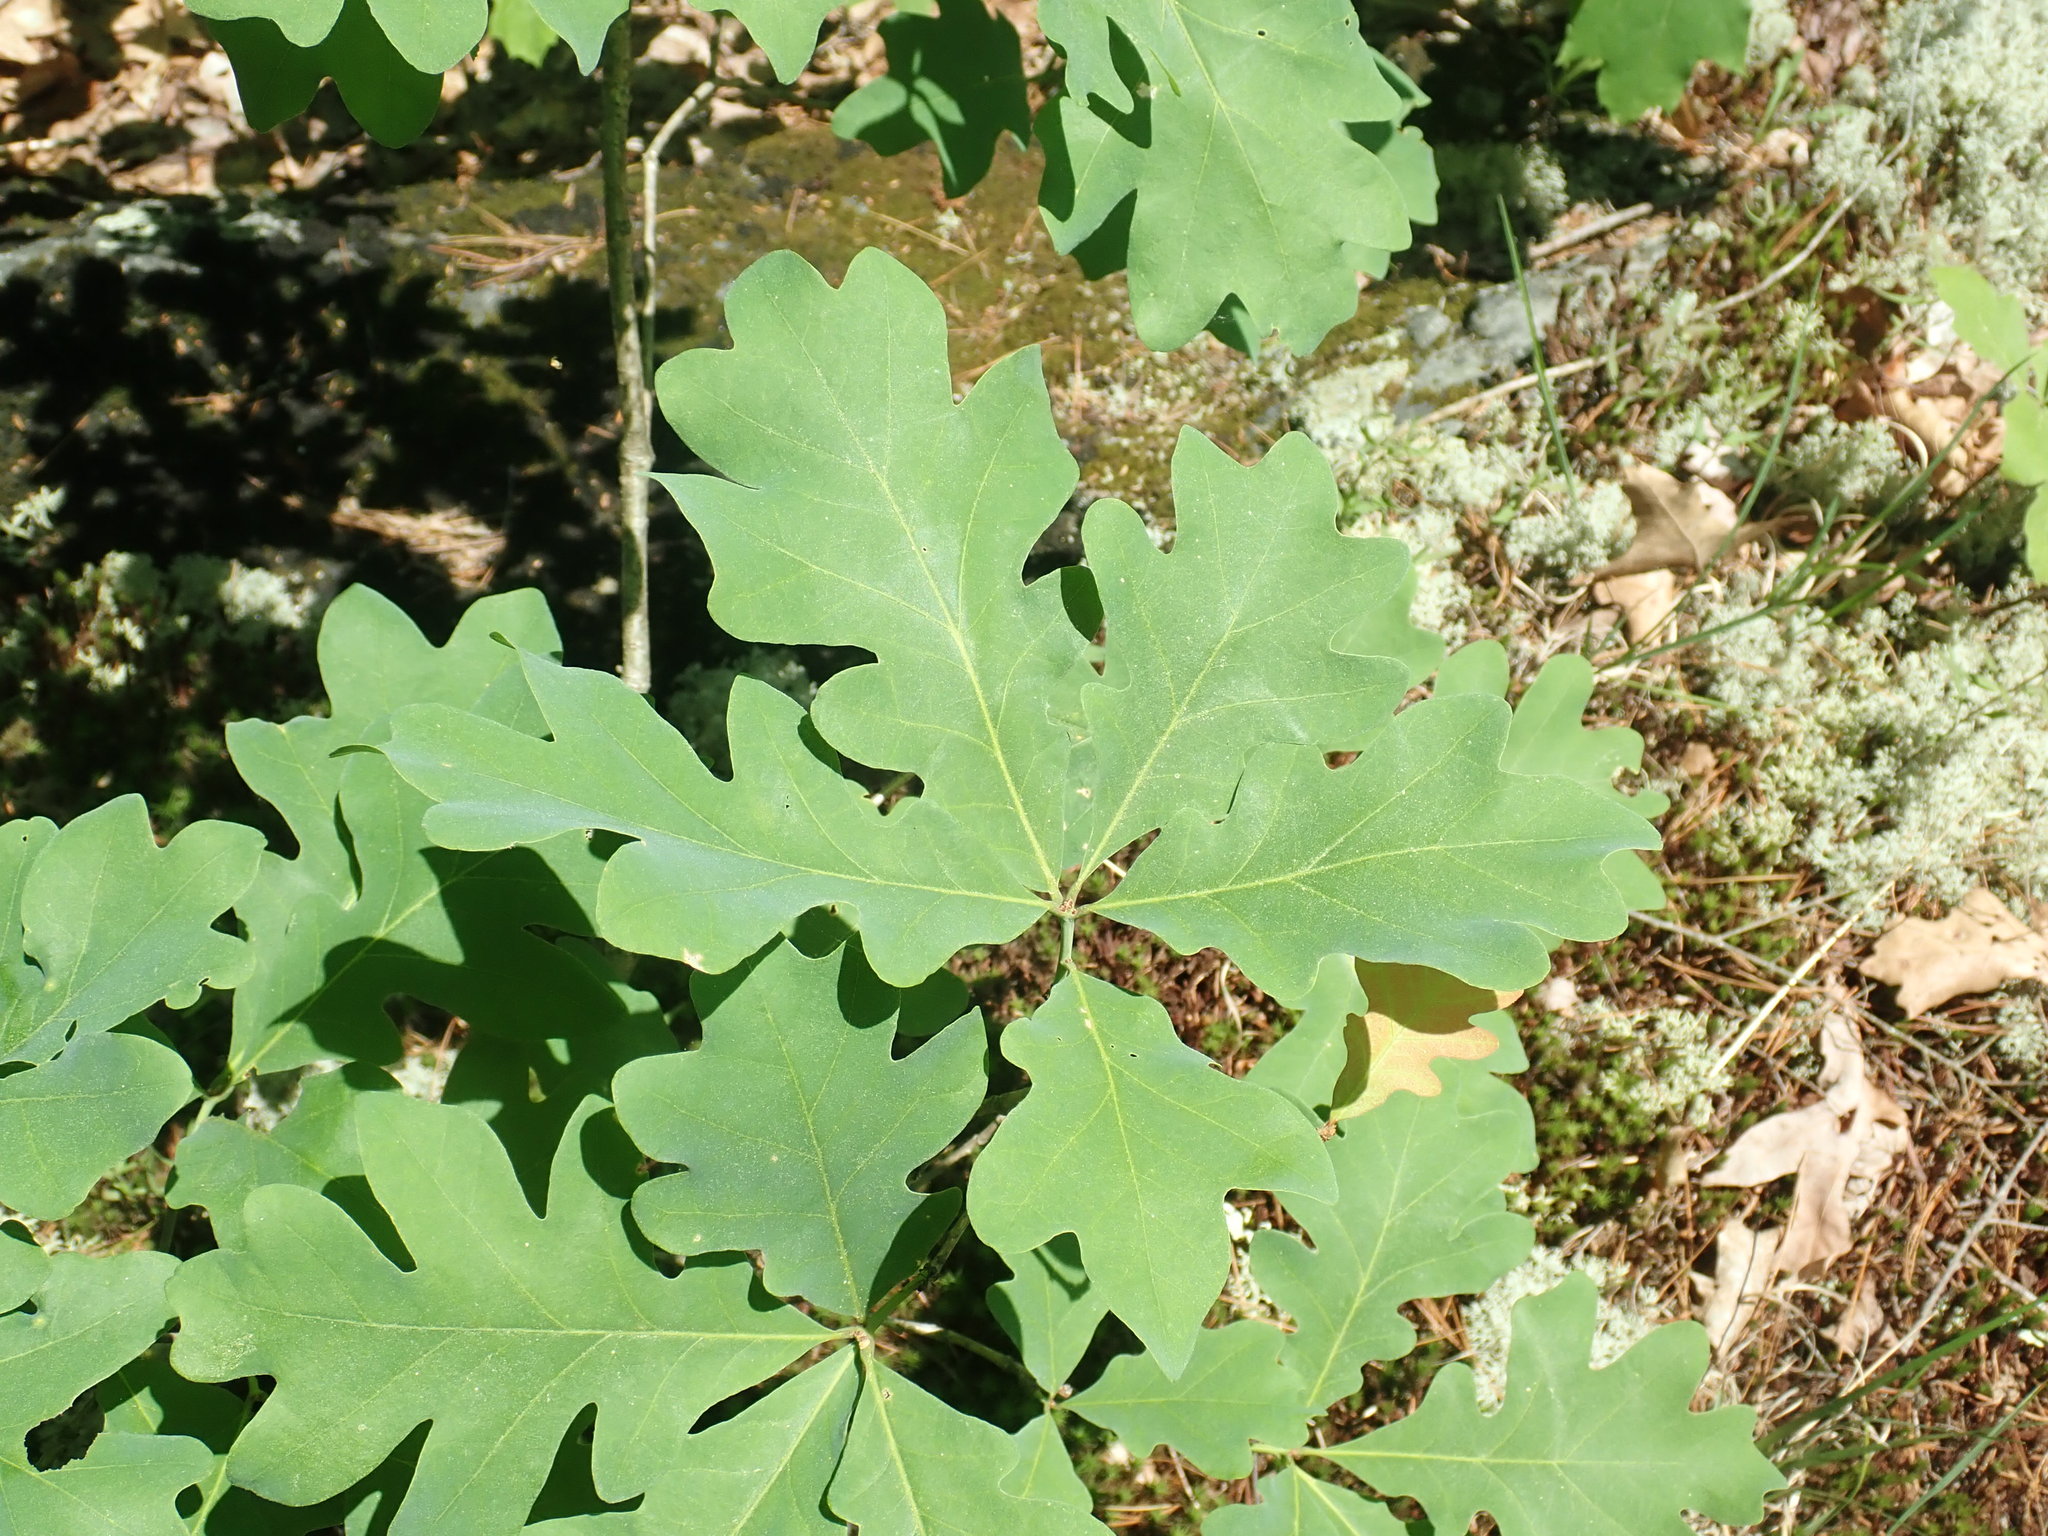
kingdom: Plantae
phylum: Tracheophyta
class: Magnoliopsida
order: Fagales
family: Fagaceae
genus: Quercus
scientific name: Quercus alba
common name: White oak
